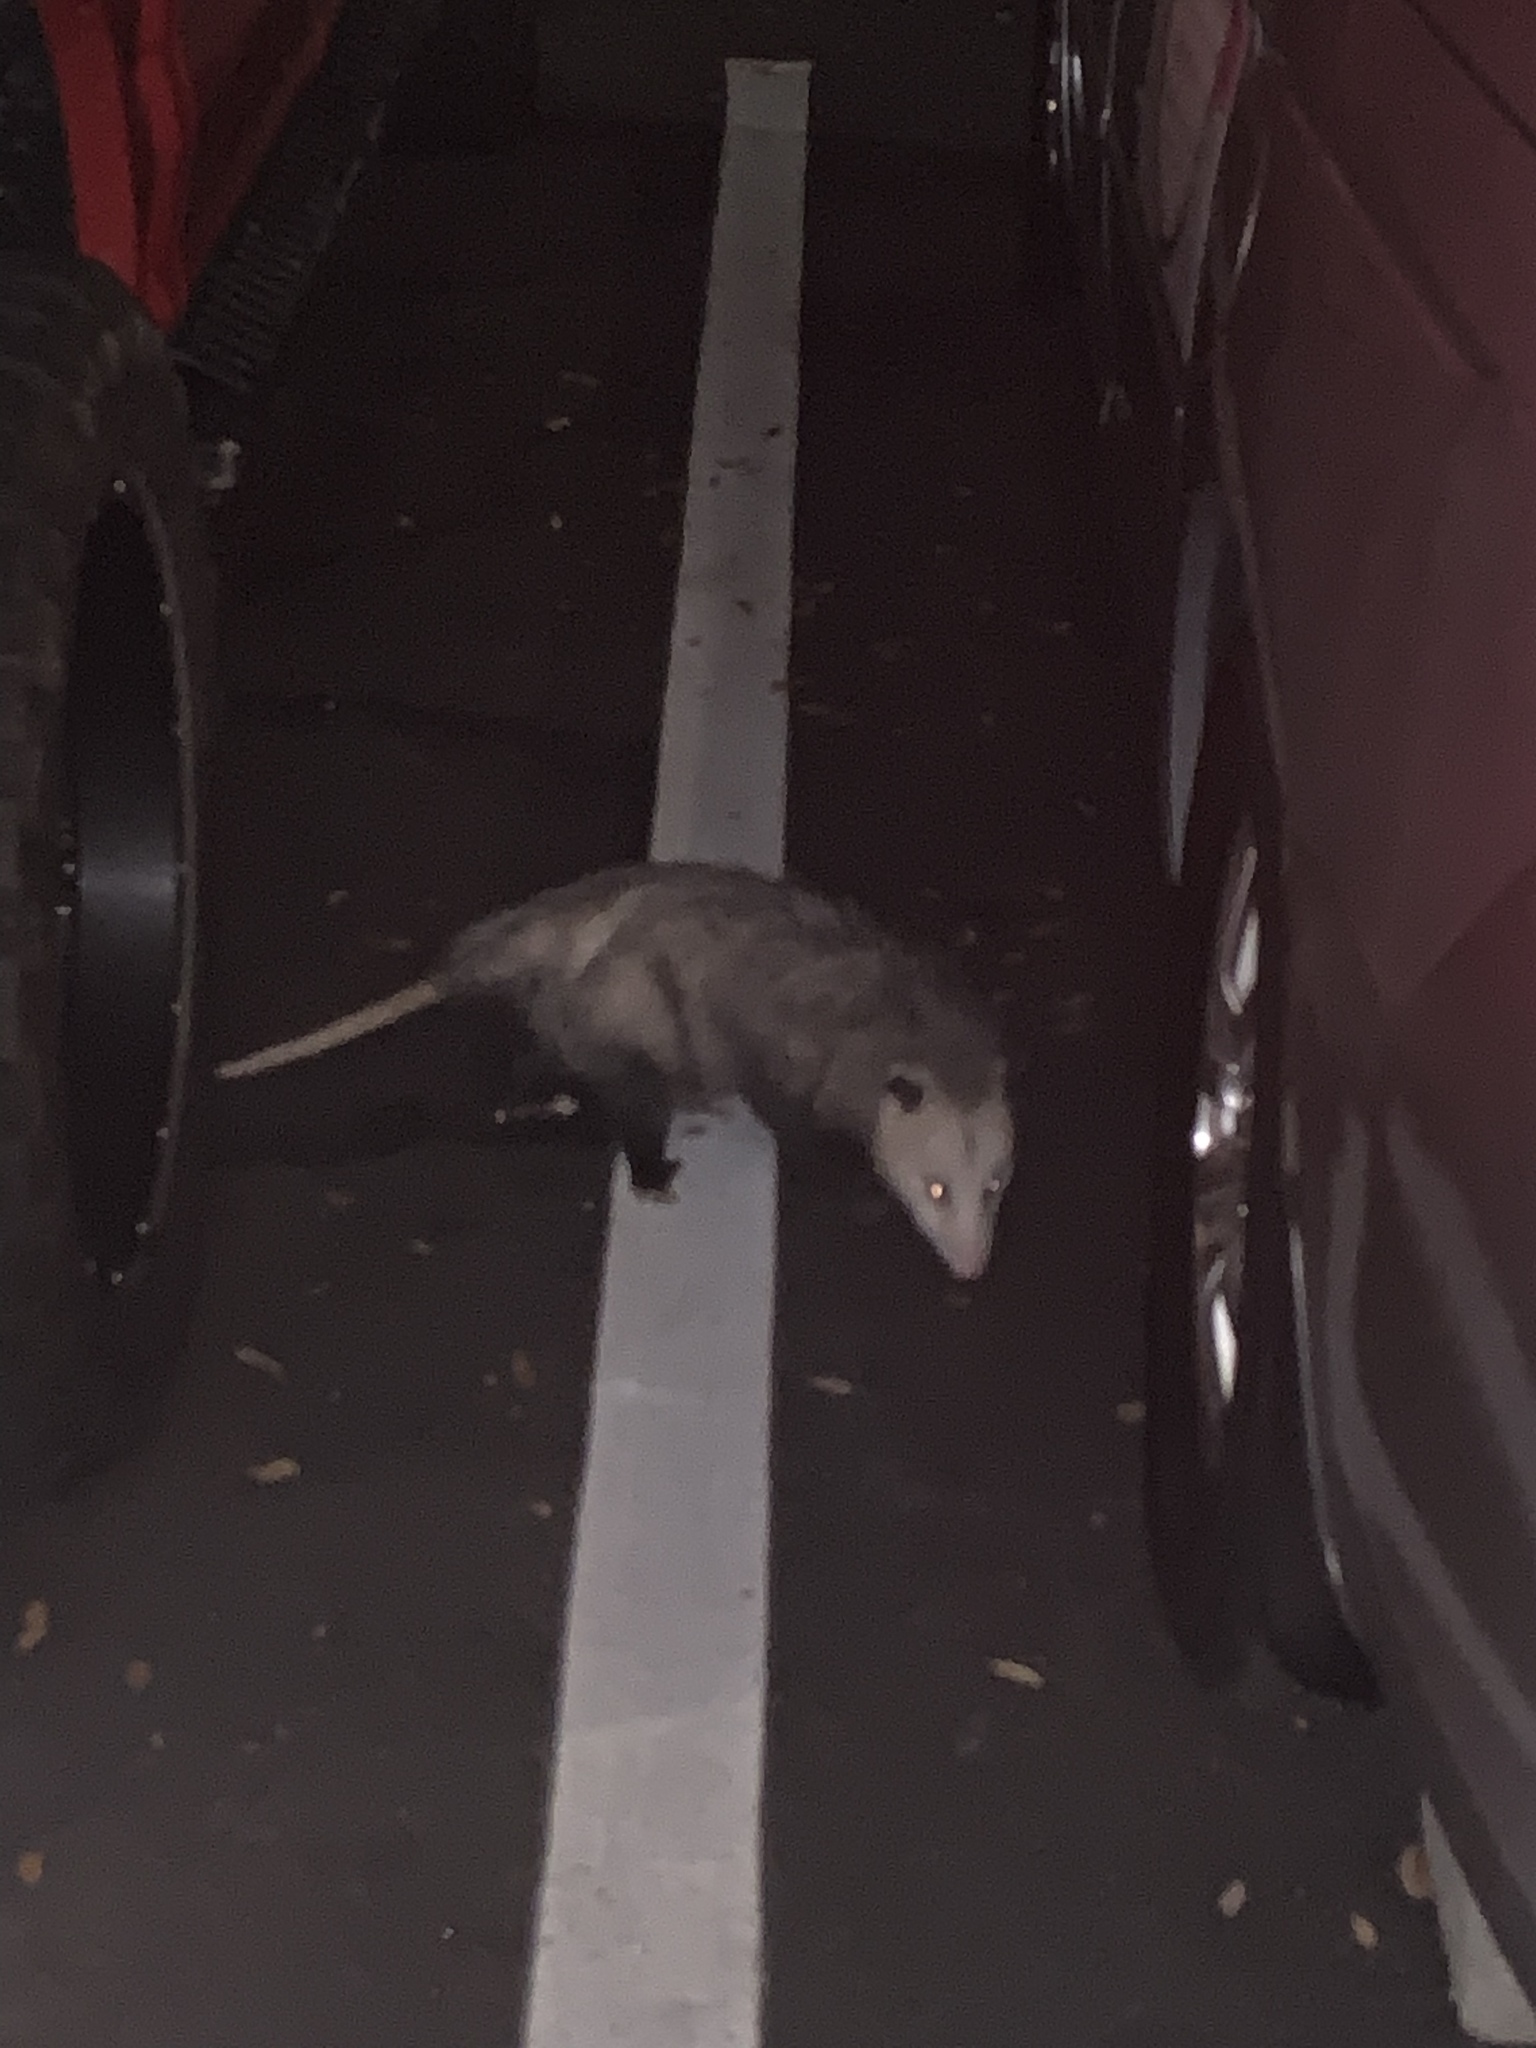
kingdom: Animalia
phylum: Chordata
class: Mammalia
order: Didelphimorphia
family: Didelphidae
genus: Didelphis
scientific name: Didelphis virginiana
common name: Virginia opossum
